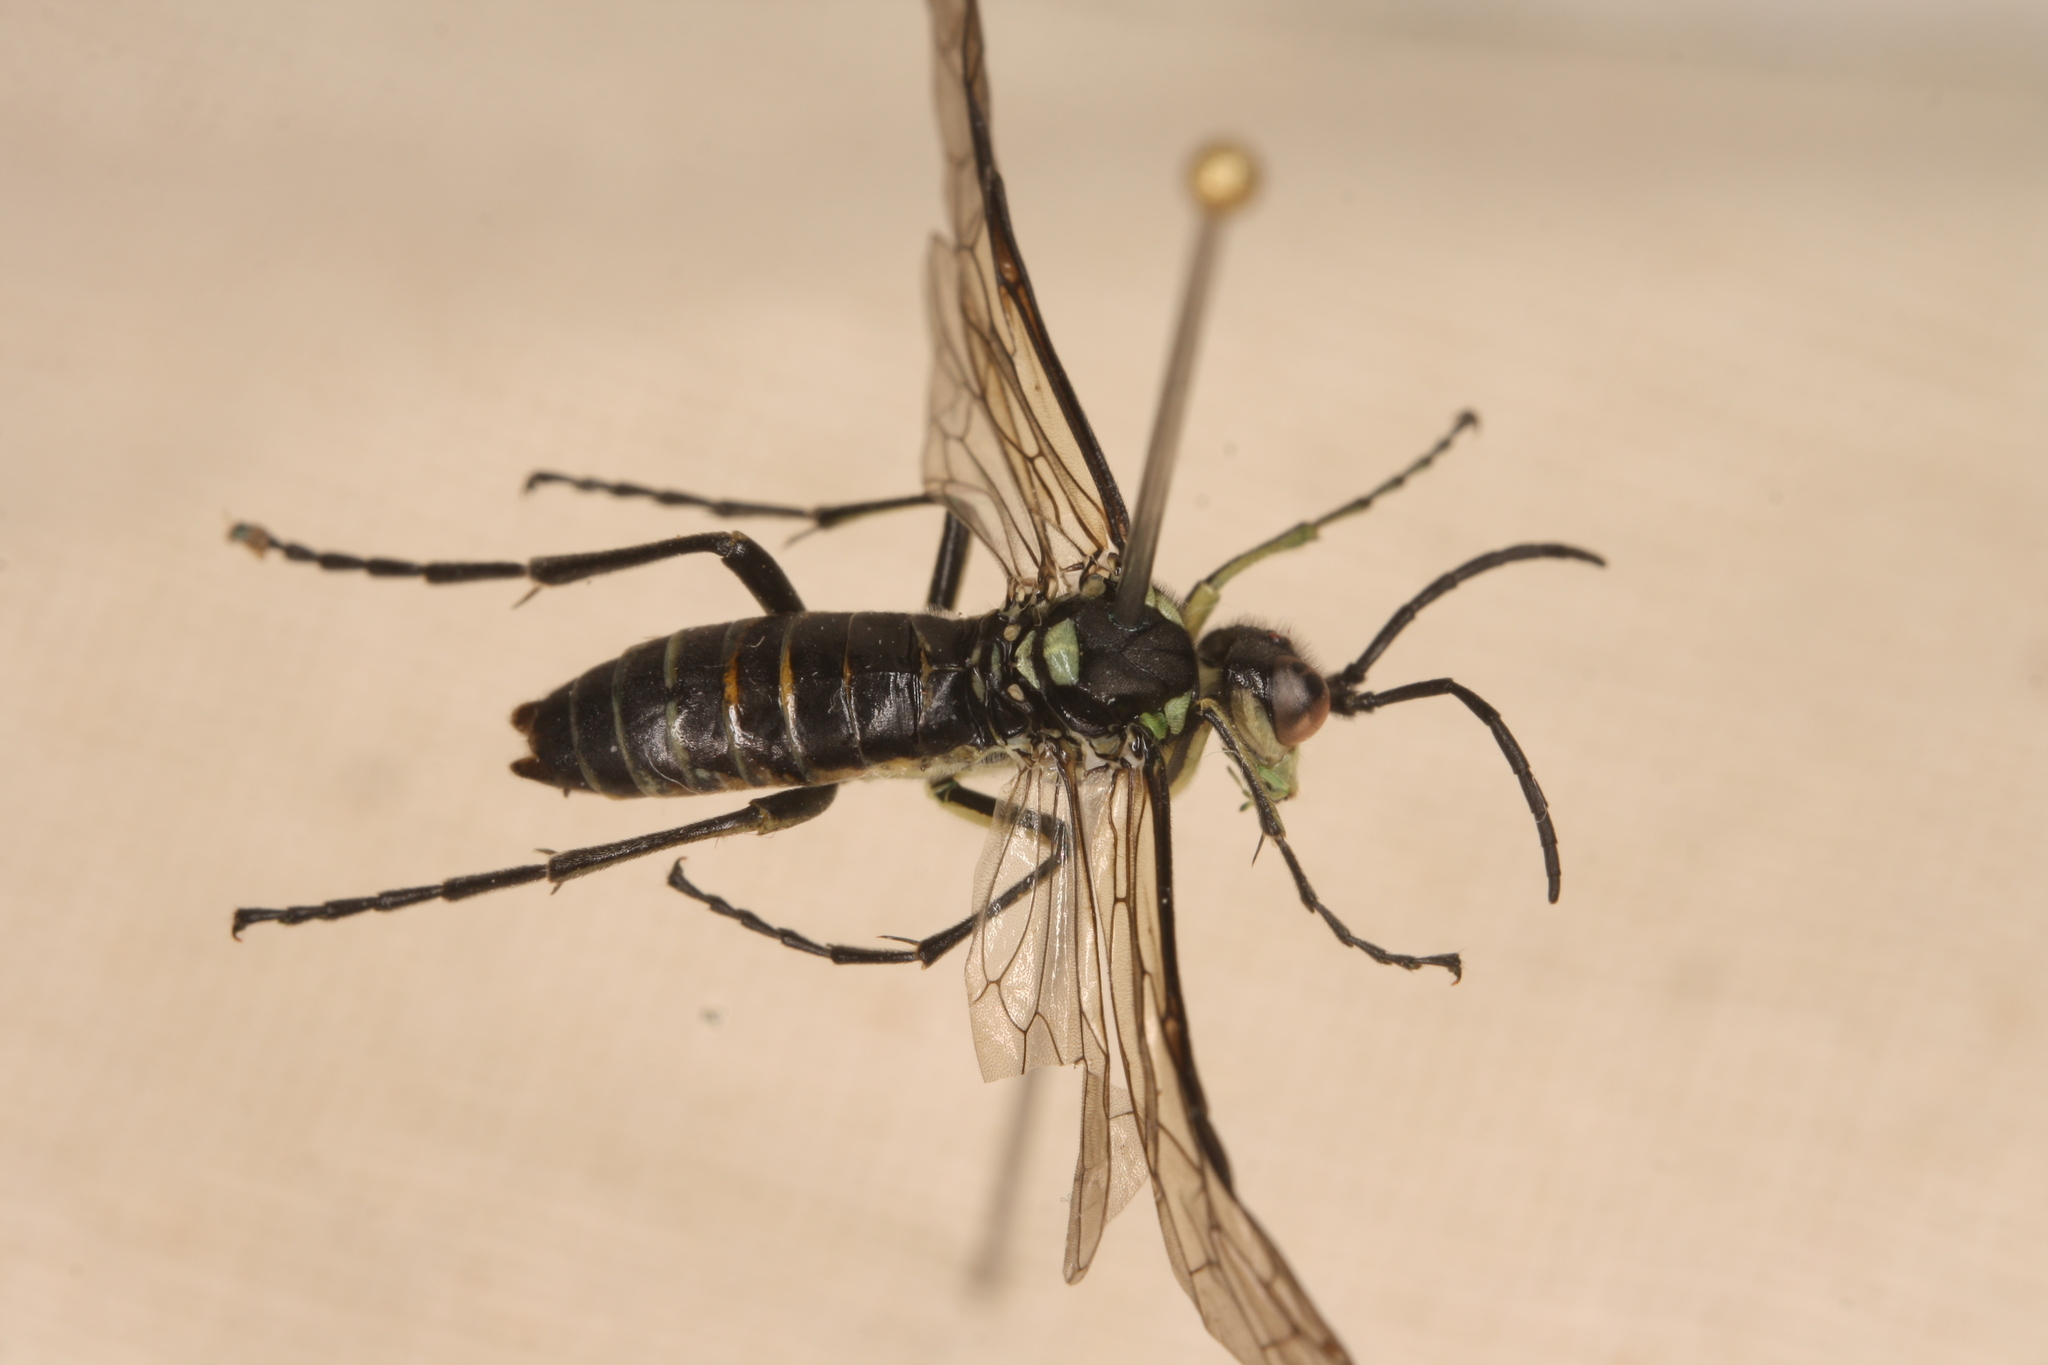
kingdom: Animalia
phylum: Arthropoda
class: Insecta
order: Hymenoptera
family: Tenthredinidae
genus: Tenthredo
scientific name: Tenthredo mesomela
